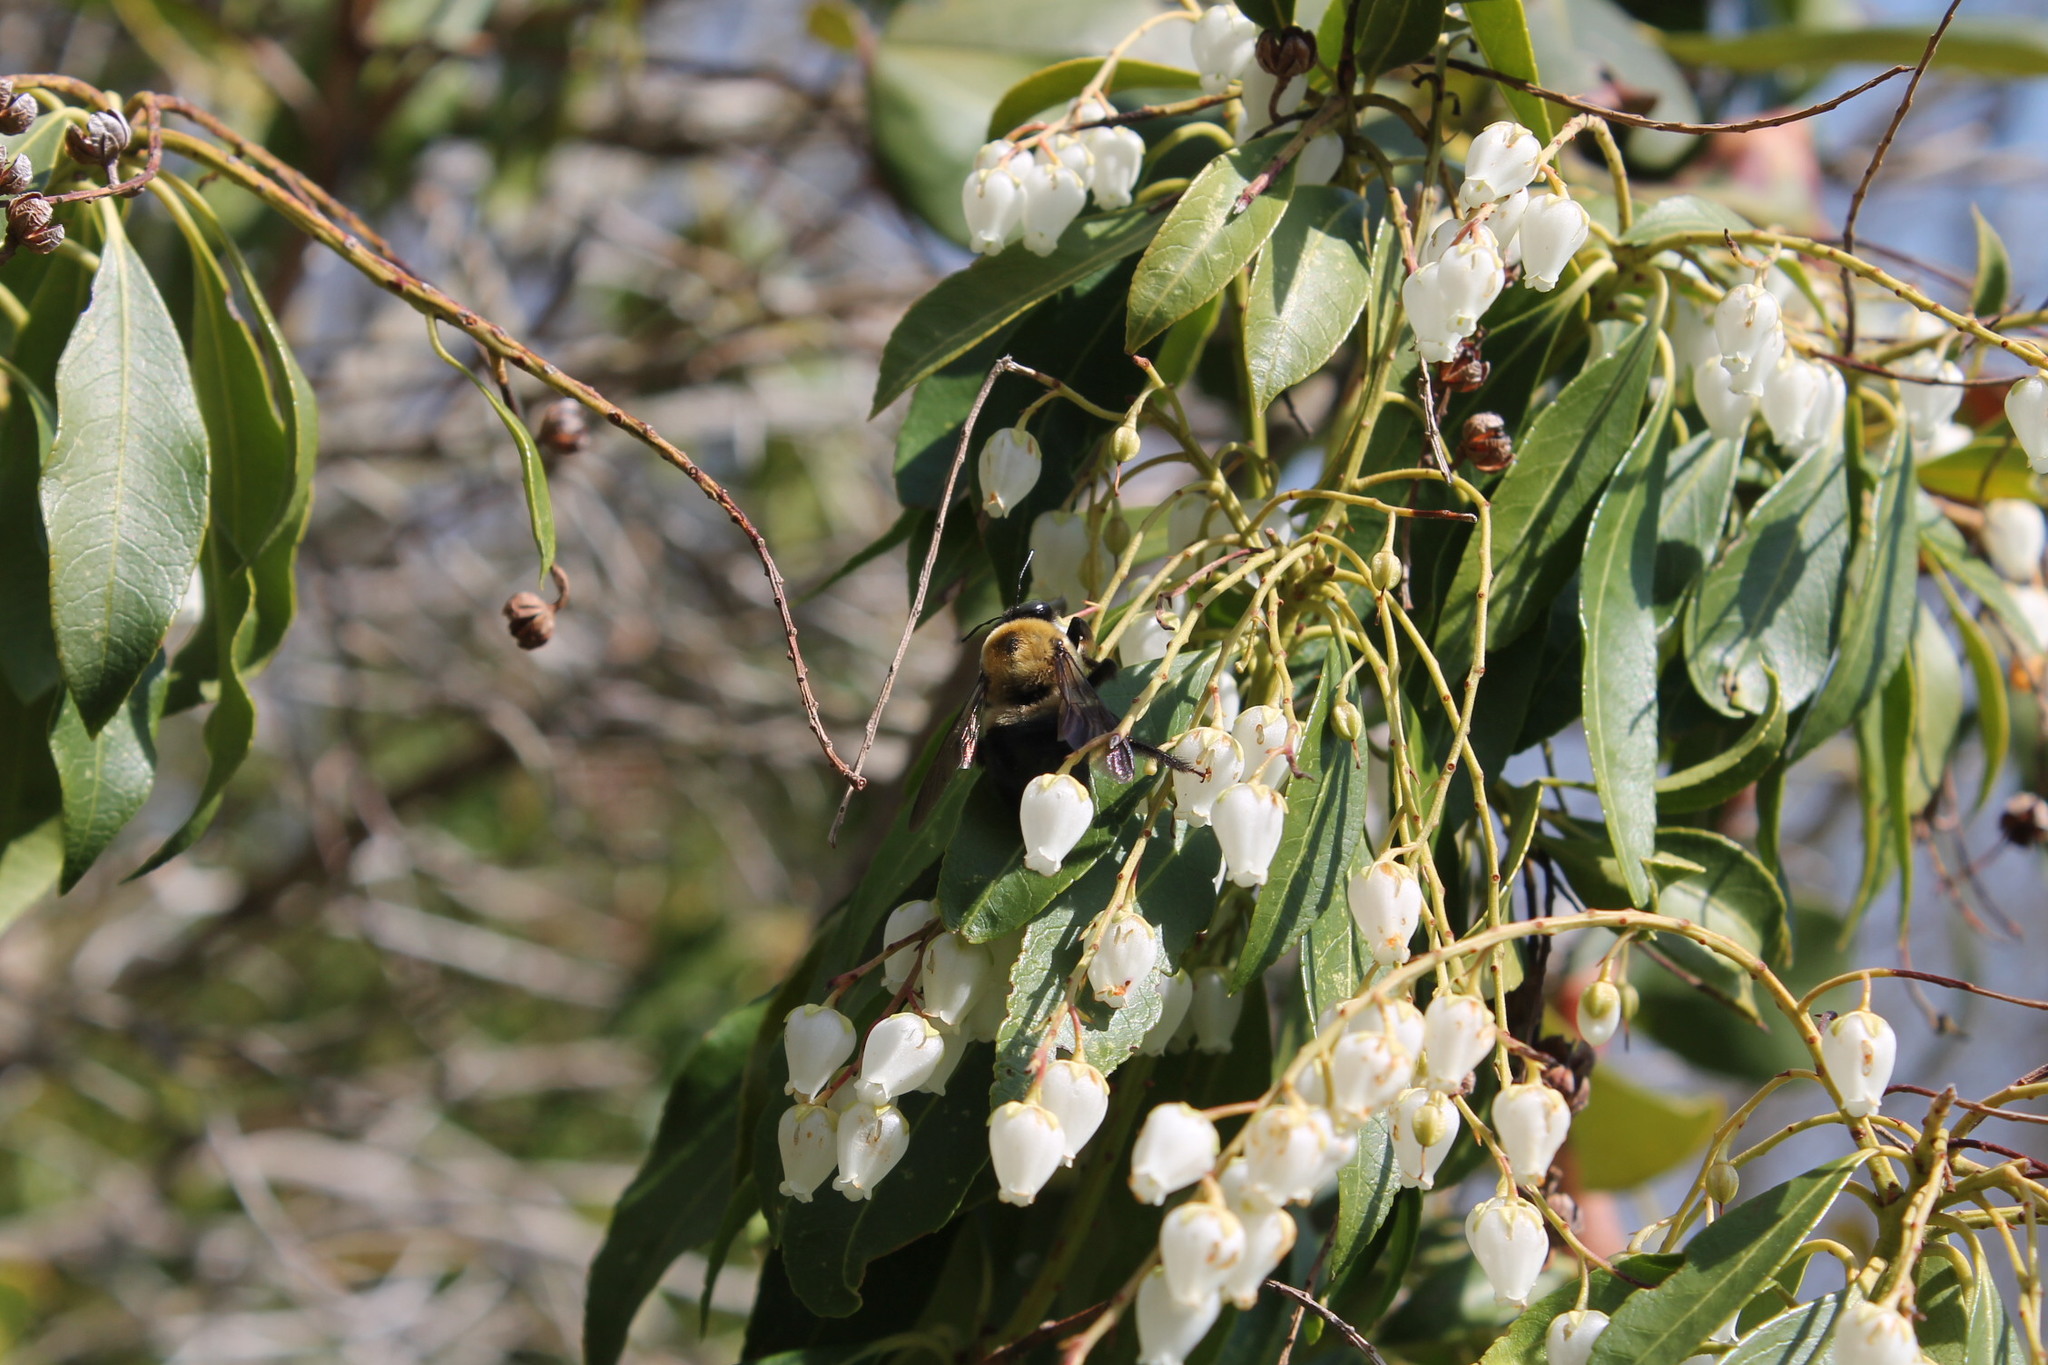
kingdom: Animalia
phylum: Arthropoda
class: Insecta
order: Hymenoptera
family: Apidae
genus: Xylocopa
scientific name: Xylocopa virginica
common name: Carpenter bee
